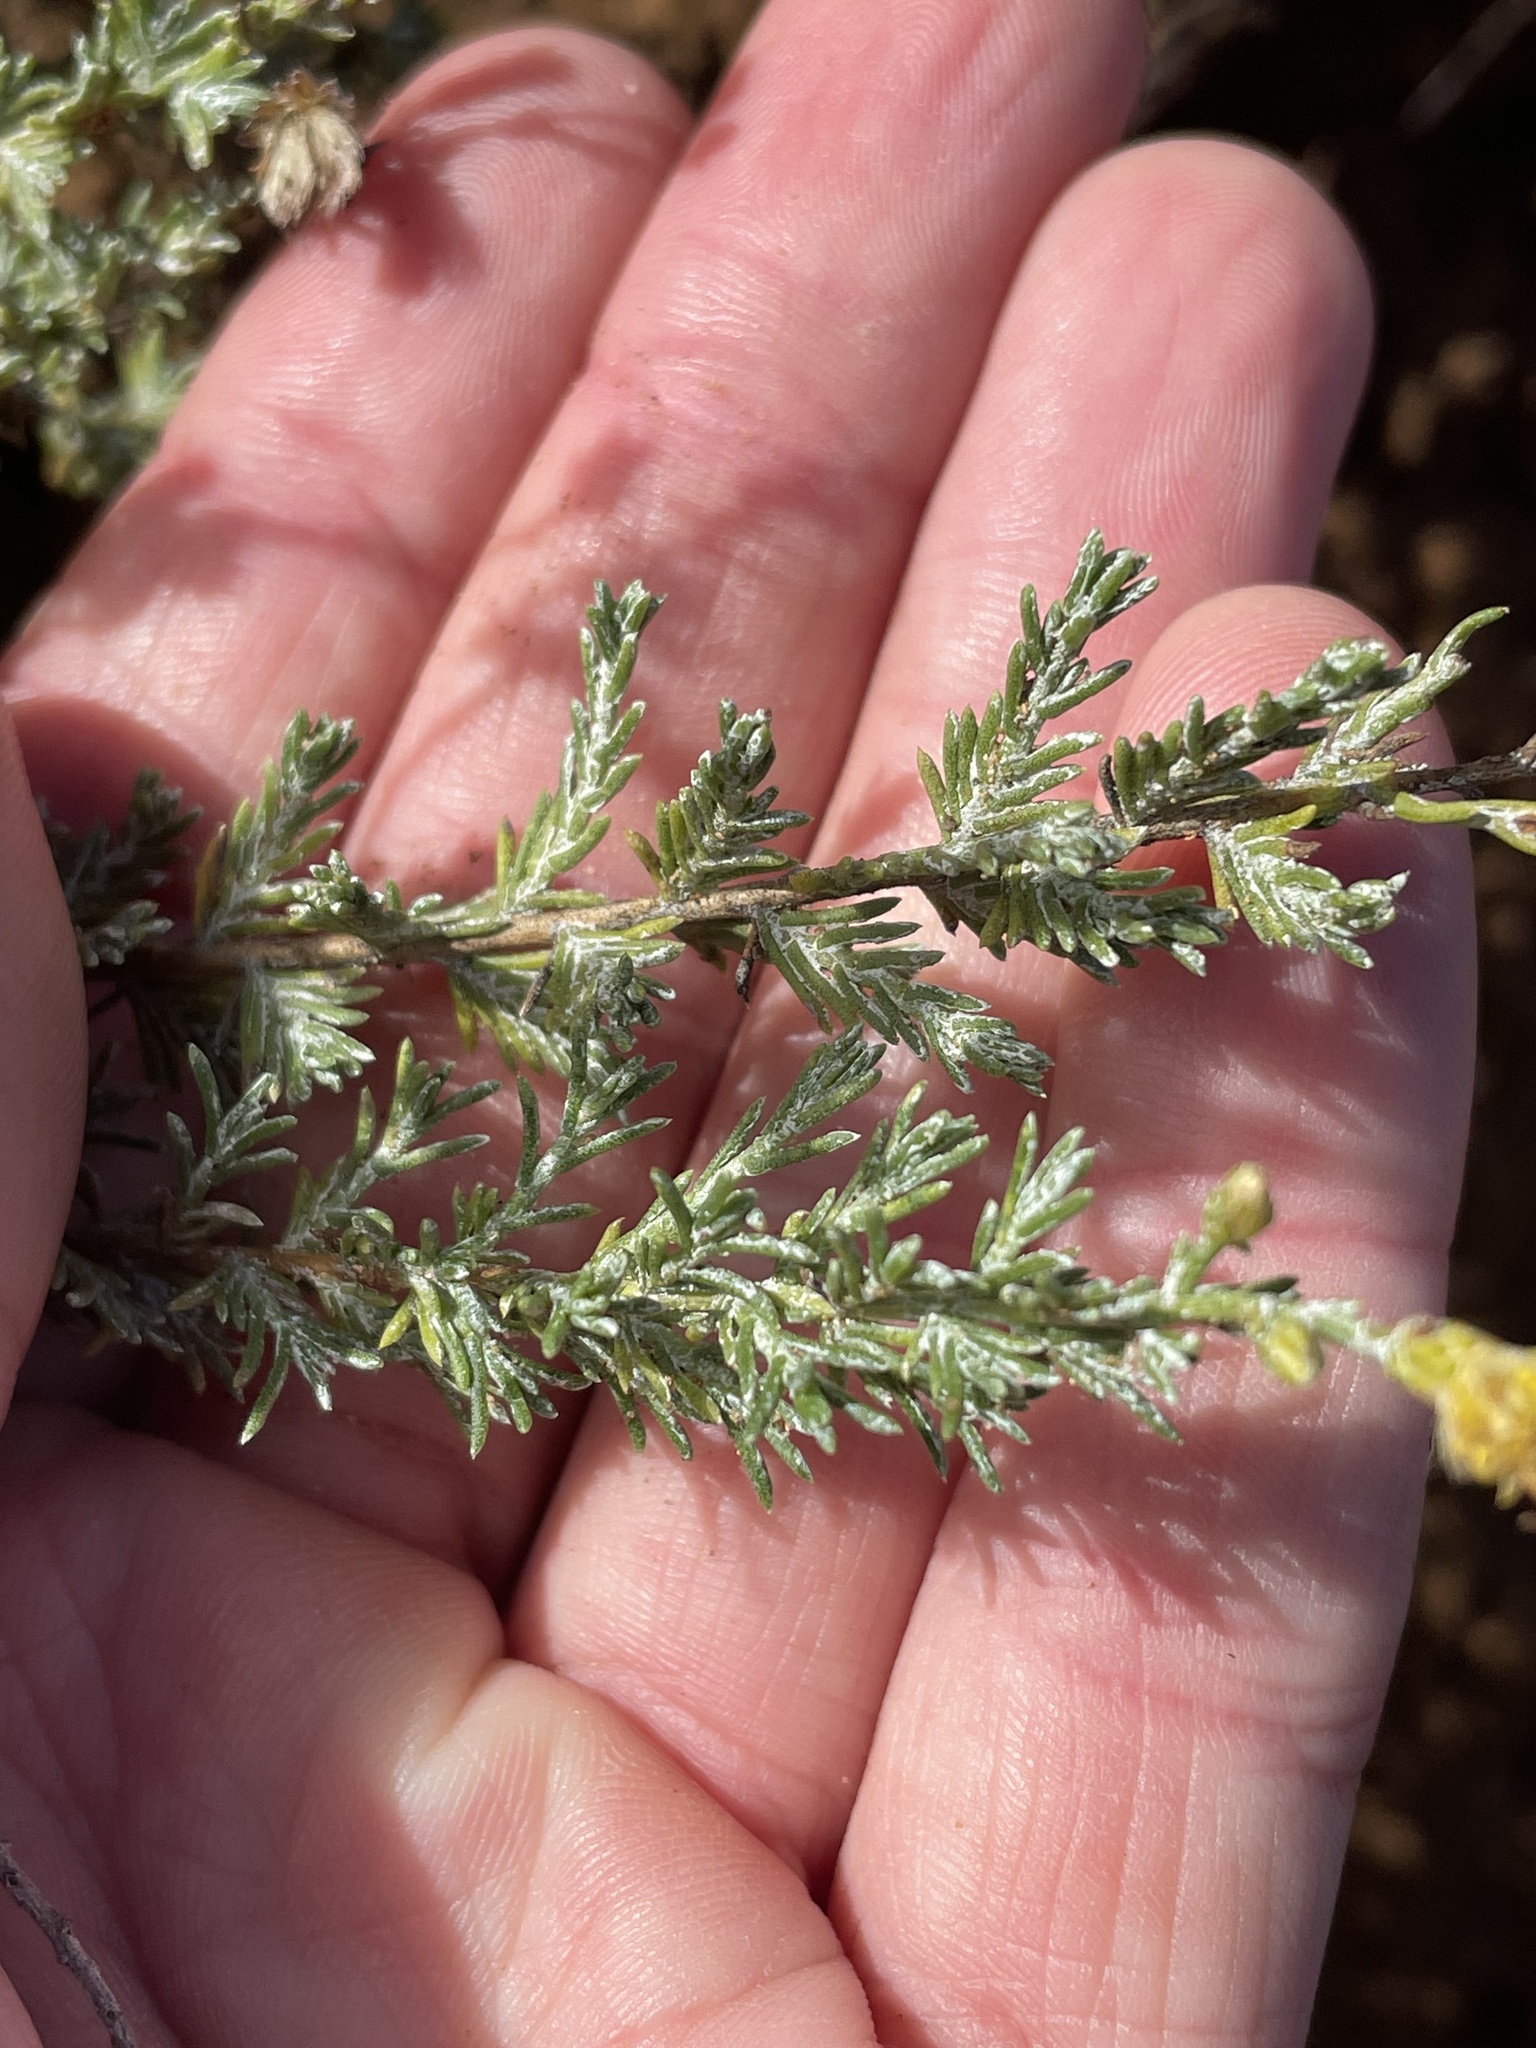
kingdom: Plantae
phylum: Tracheophyta
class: Magnoliopsida
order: Asterales
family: Asteraceae
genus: Ericameria
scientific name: Ericameria ericoides
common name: California goldenbush
